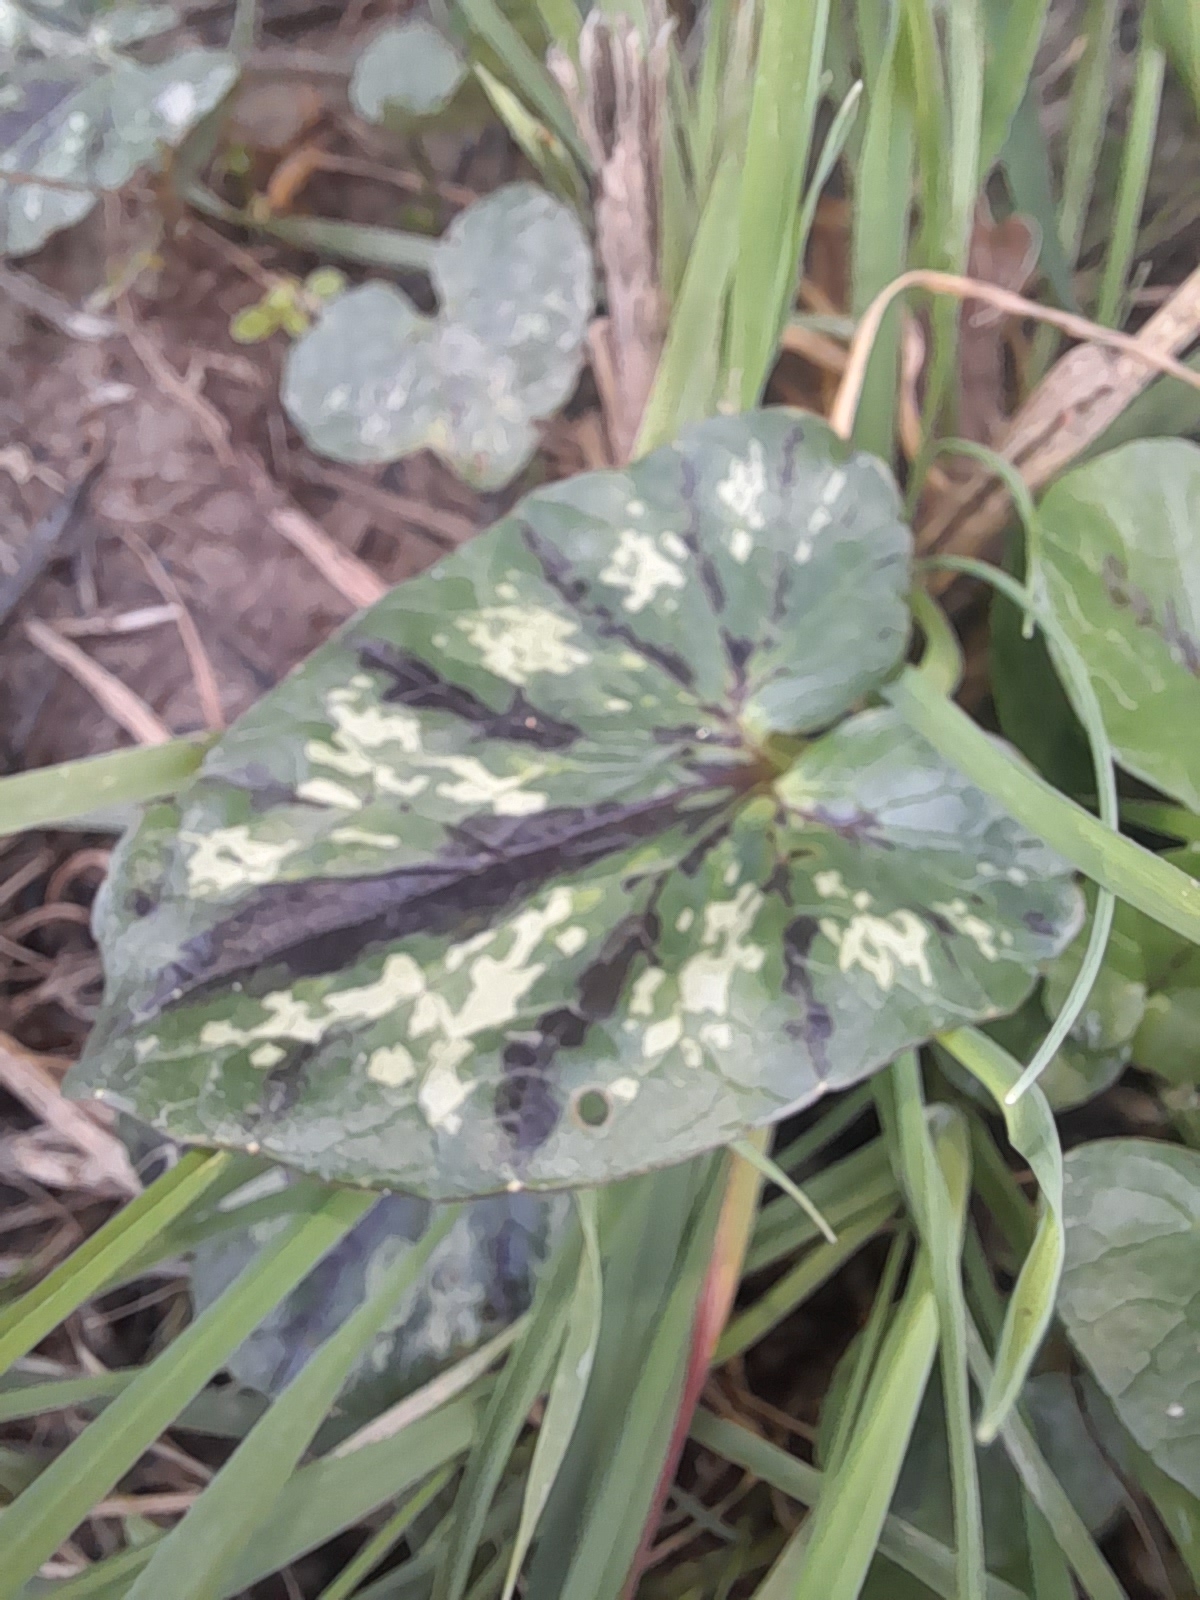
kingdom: Plantae
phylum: Tracheophyta
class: Magnoliopsida
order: Ranunculales
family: Ranunculaceae
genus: Ficaria
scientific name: Ficaria verna
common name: Lesser celandine
